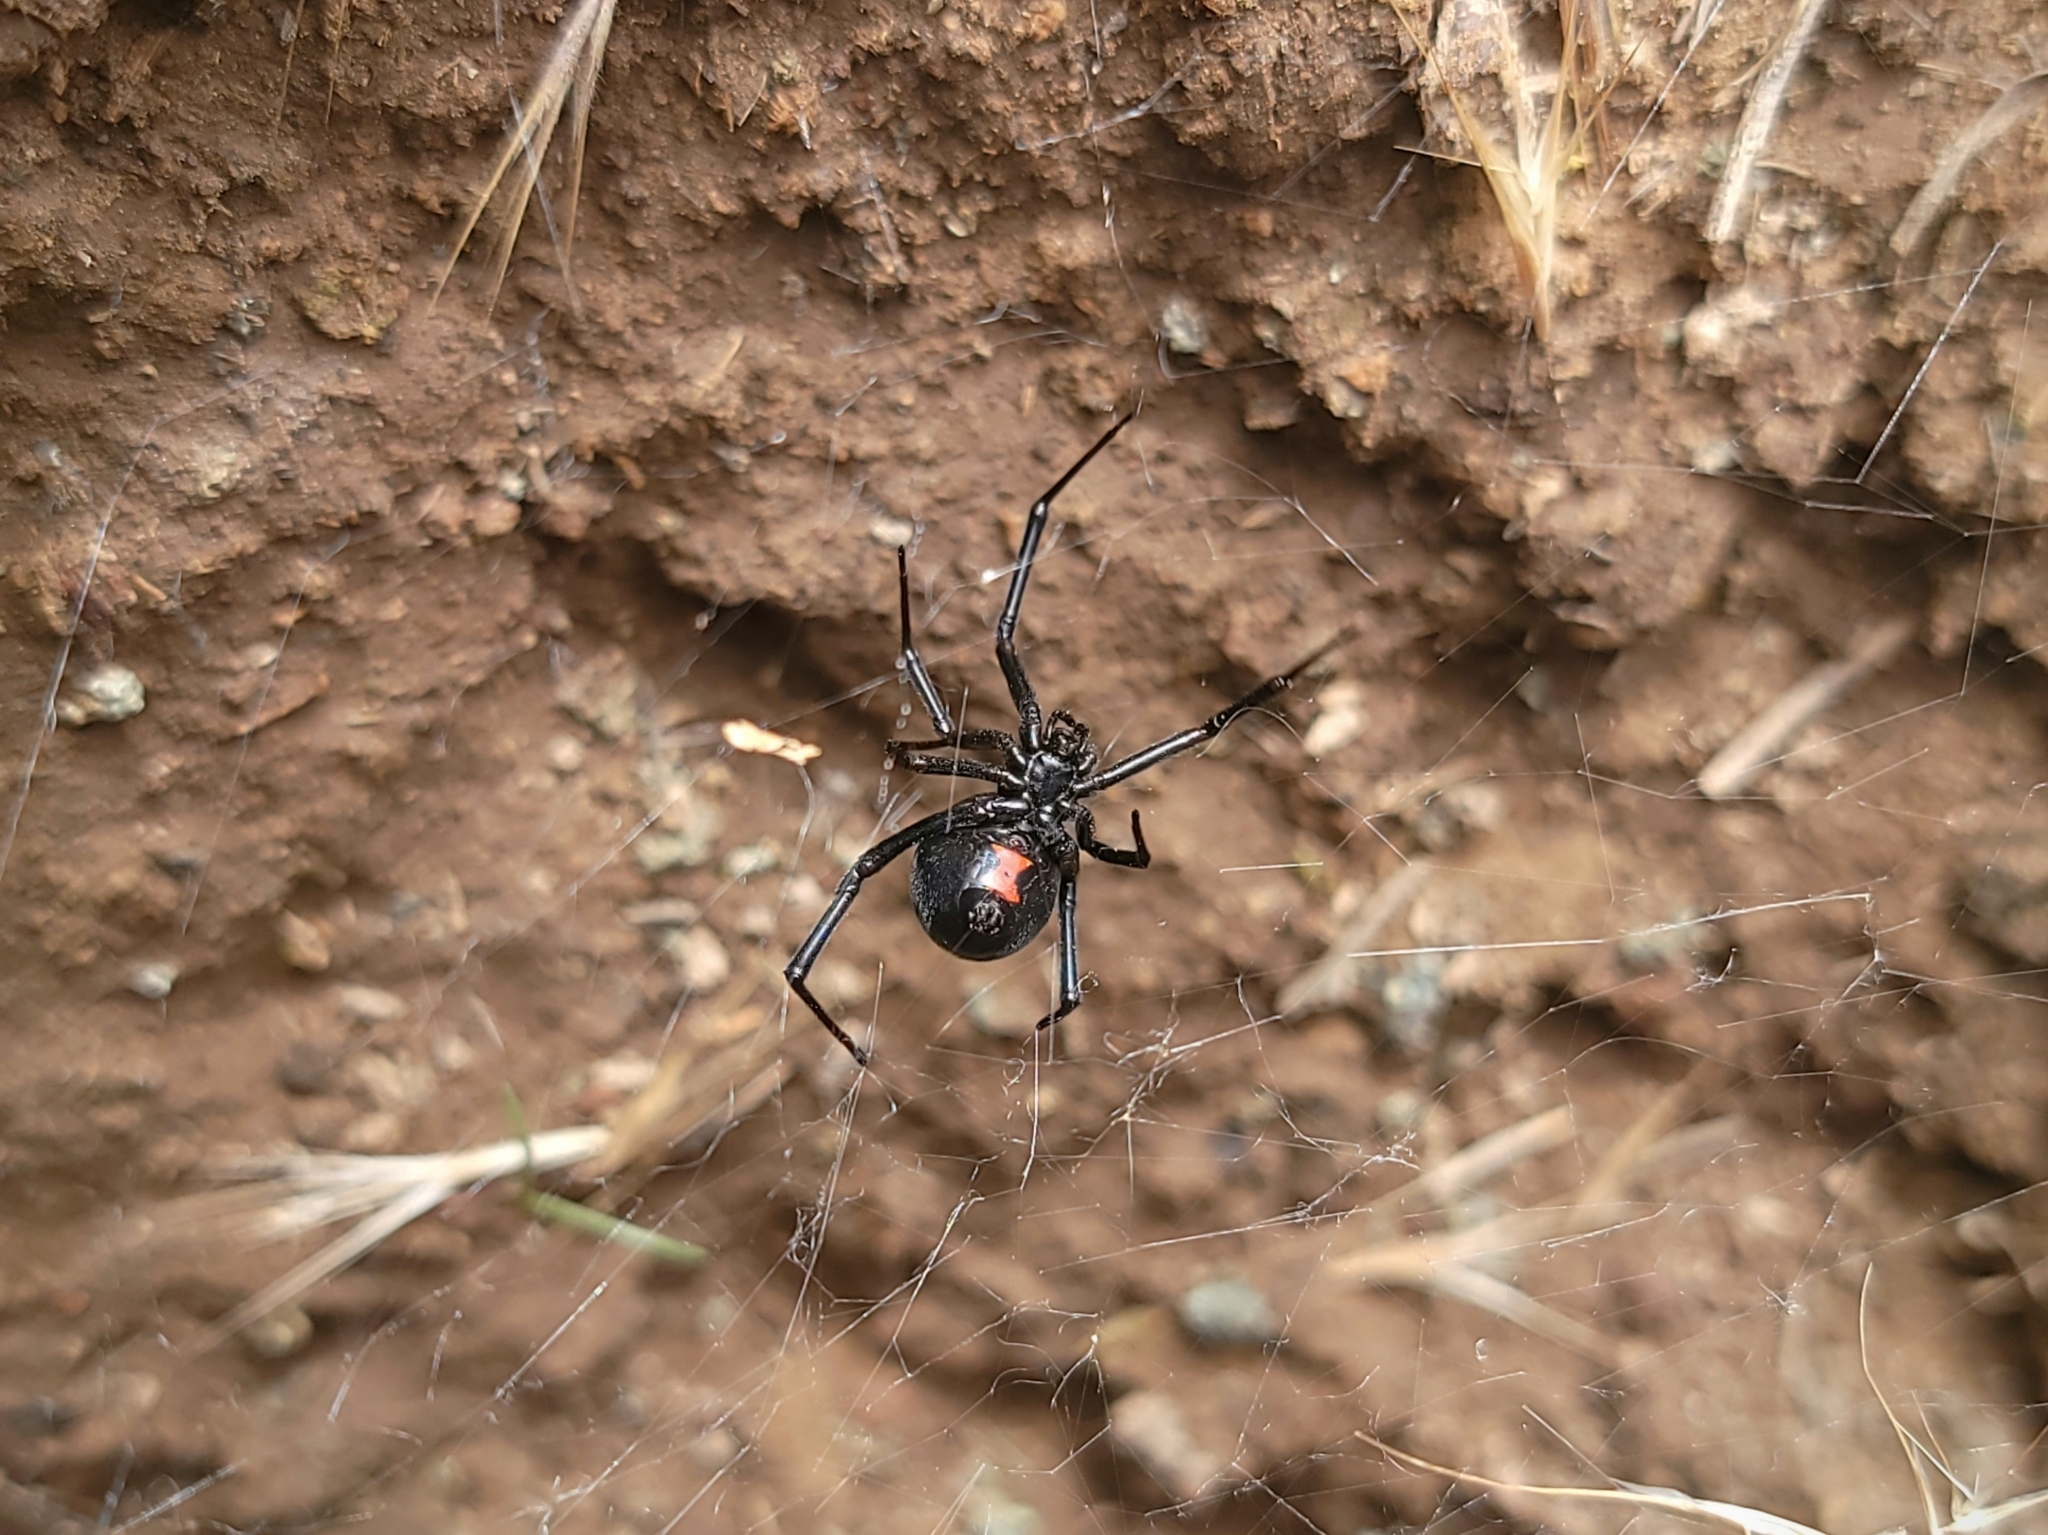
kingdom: Animalia
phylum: Arthropoda
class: Arachnida
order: Araneae
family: Theridiidae
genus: Latrodectus
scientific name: Latrodectus hesperus
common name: Western black widow
